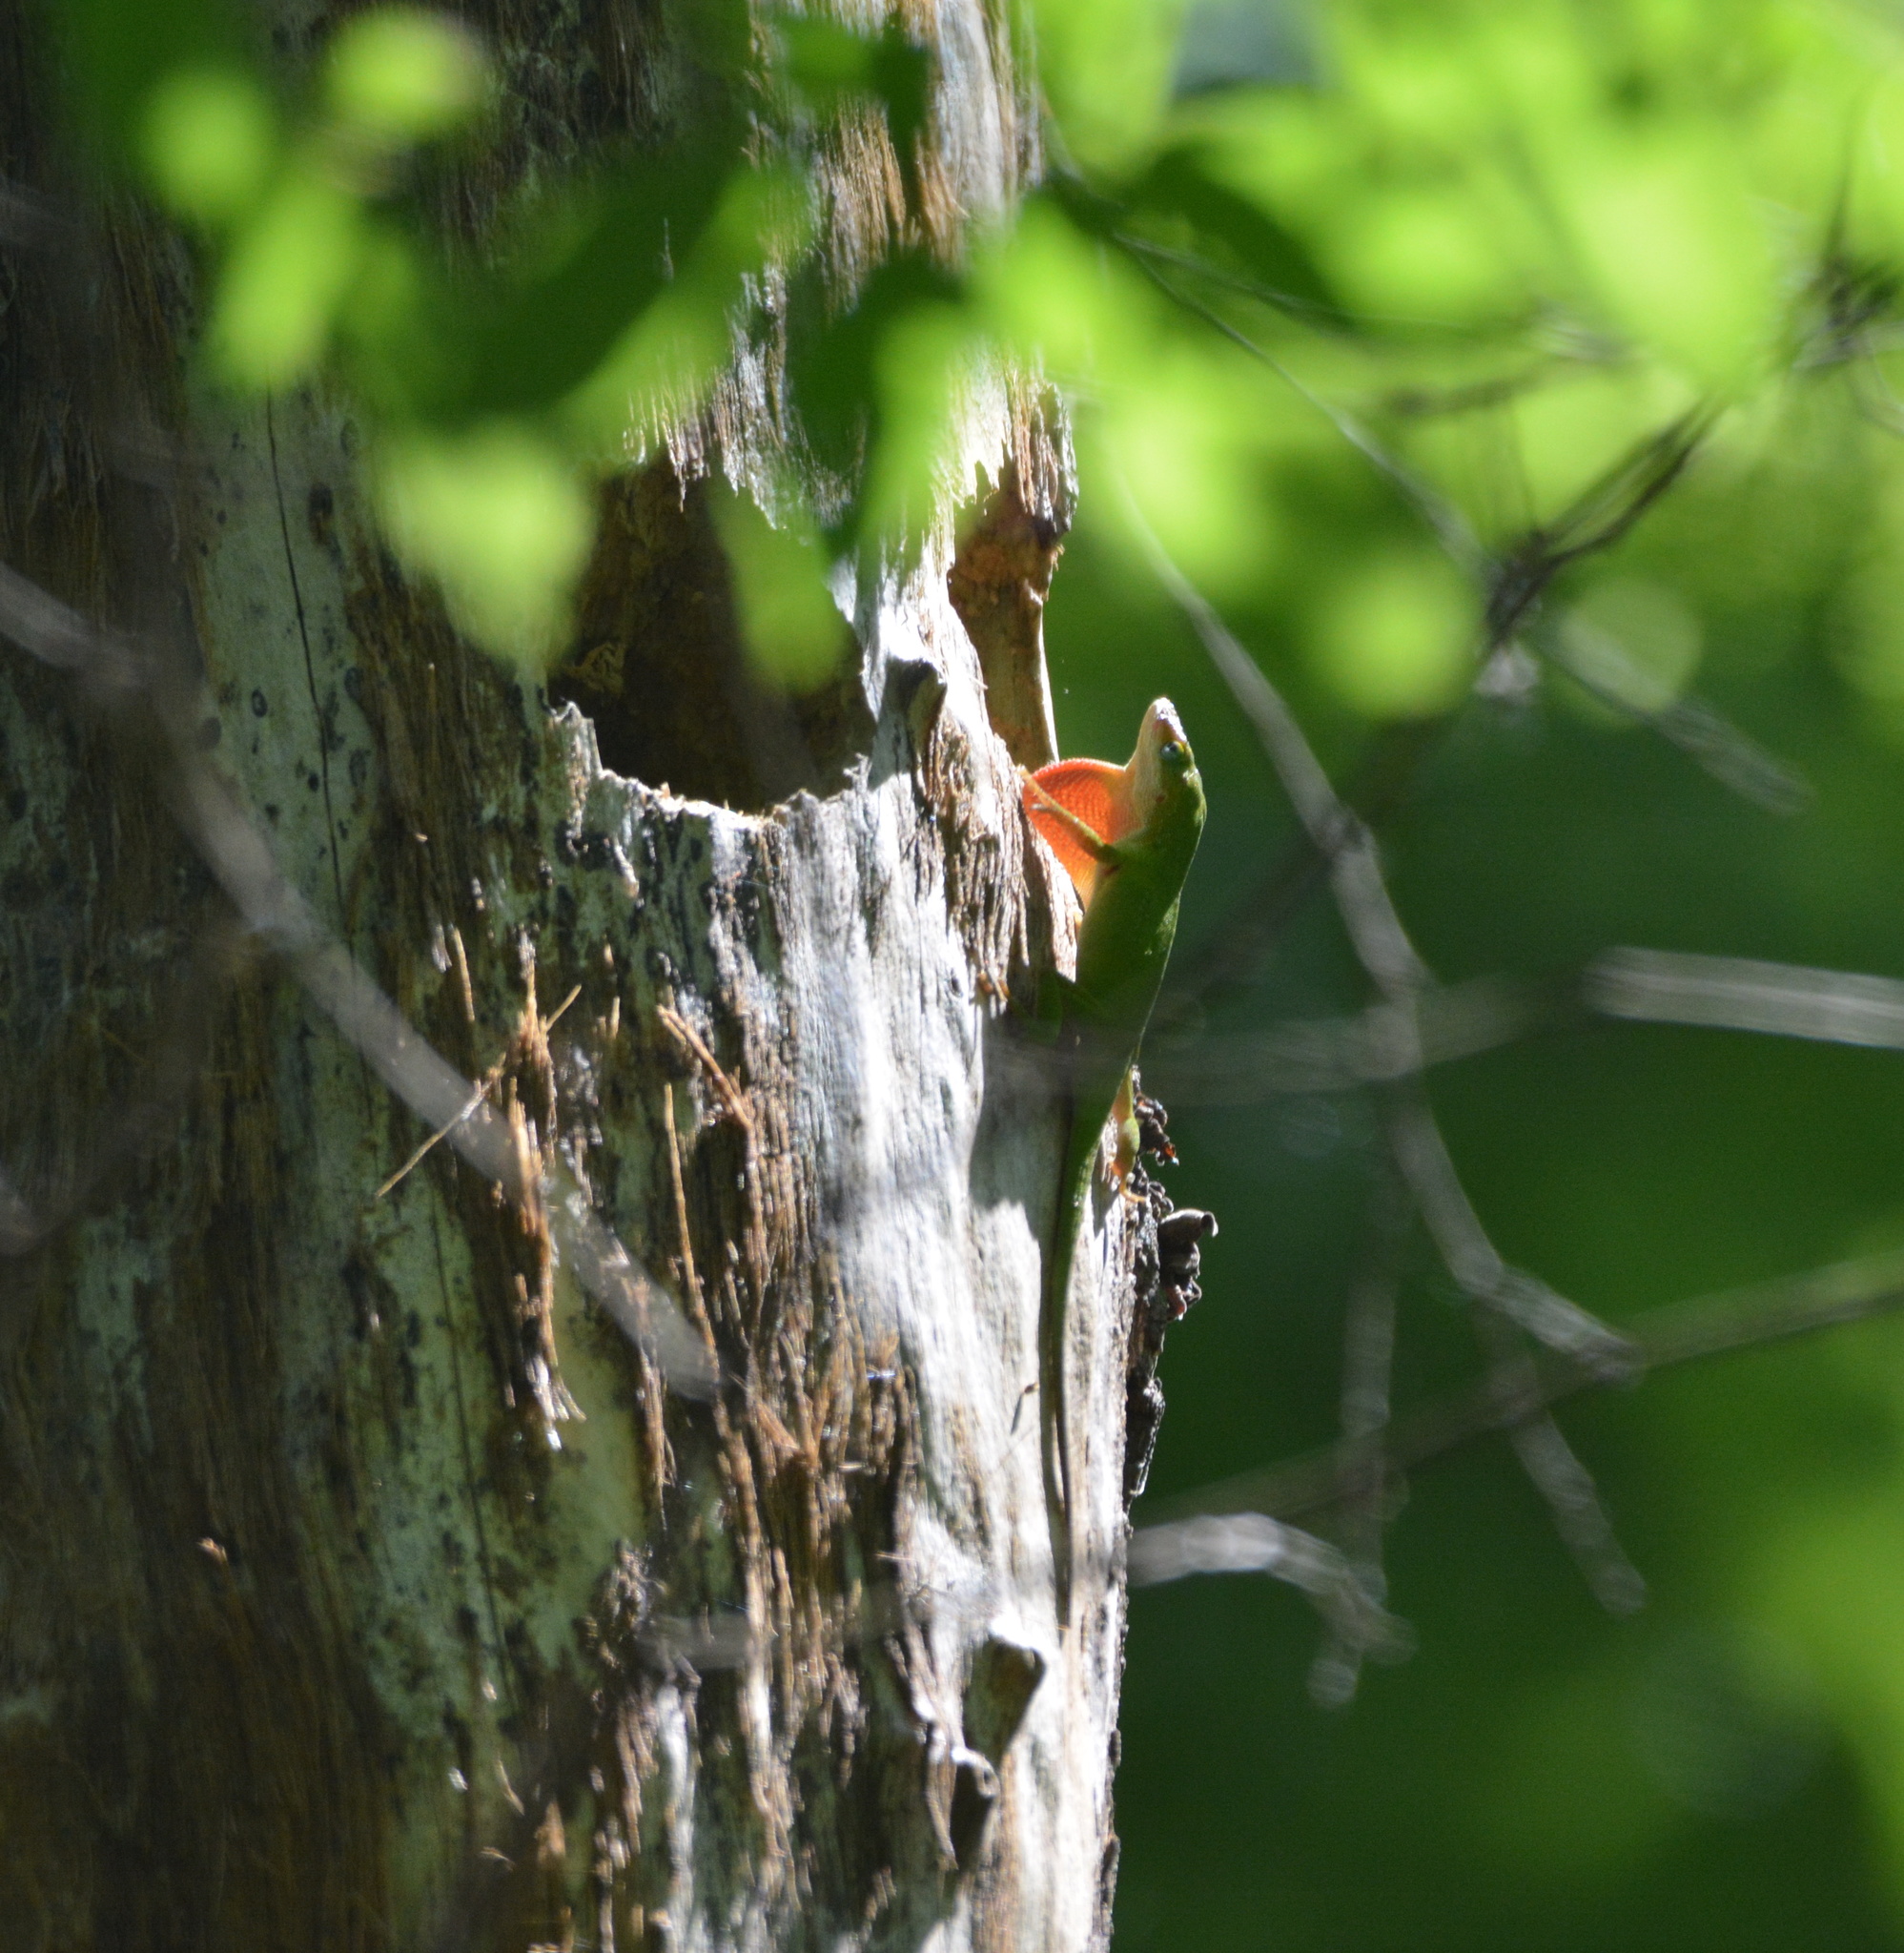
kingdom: Animalia
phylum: Chordata
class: Squamata
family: Dactyloidae
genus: Anolis
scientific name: Anolis carolinensis
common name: Green anole
